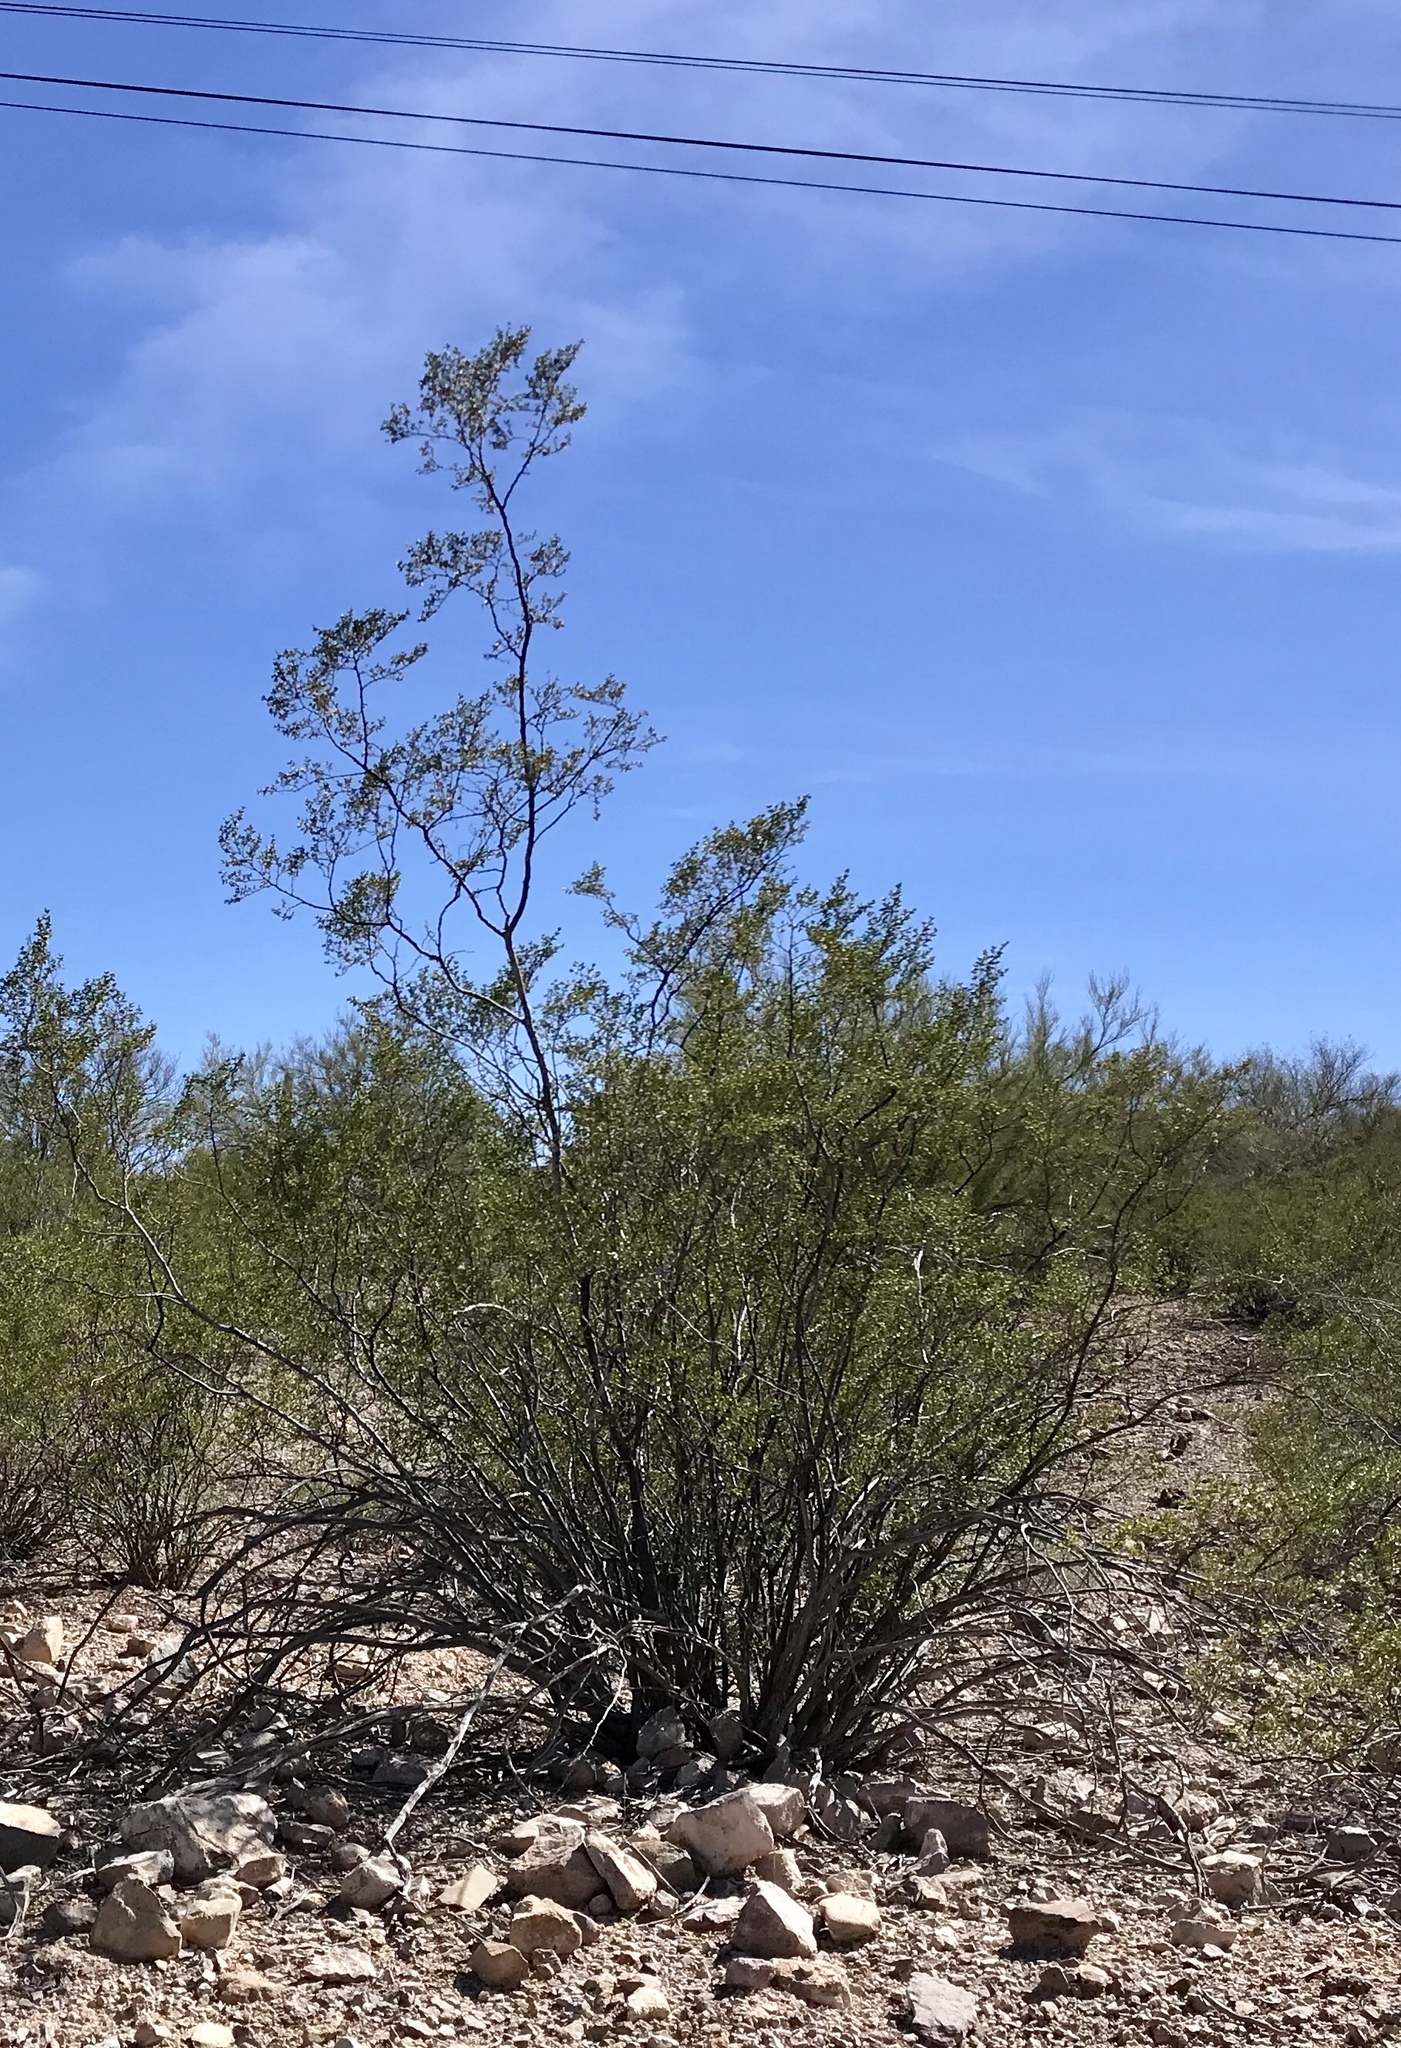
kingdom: Plantae
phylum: Tracheophyta
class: Magnoliopsida
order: Zygophyllales
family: Zygophyllaceae
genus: Larrea
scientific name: Larrea tridentata
